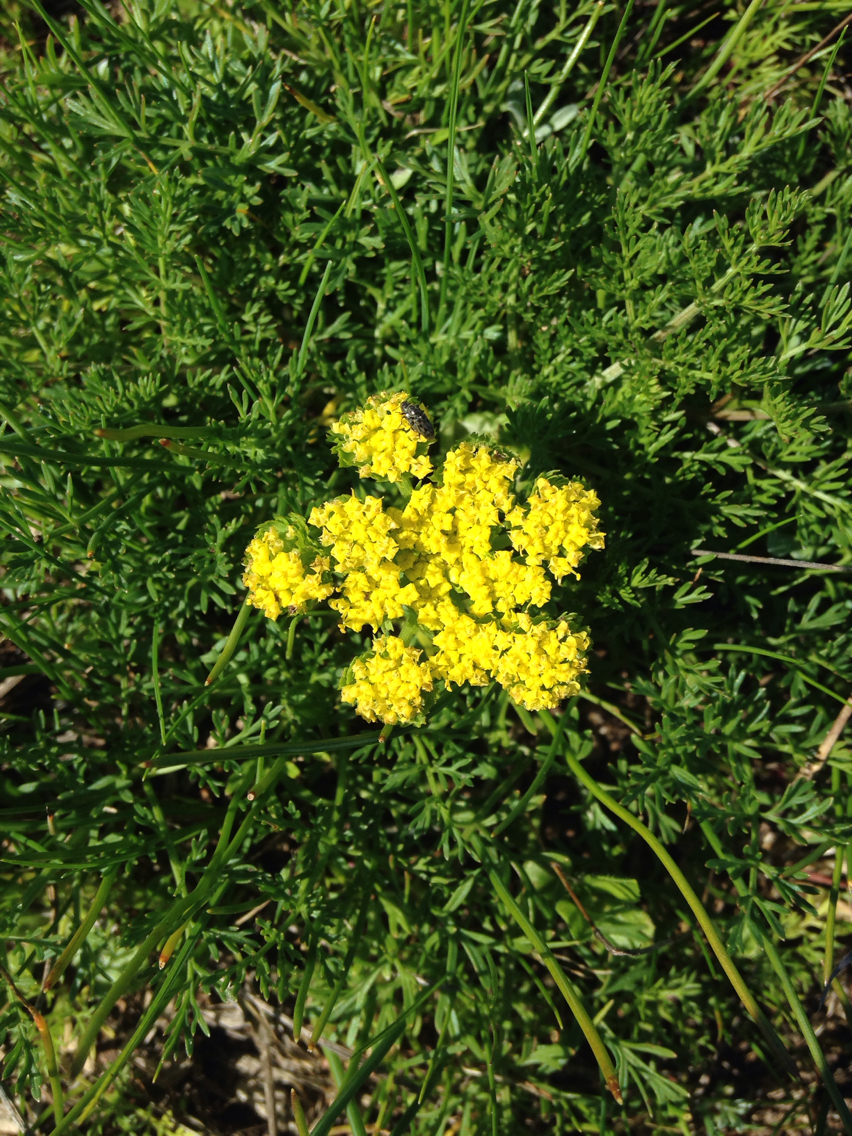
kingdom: Plantae
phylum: Tracheophyta
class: Magnoliopsida
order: Apiales
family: Apiaceae
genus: Lomatium
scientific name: Lomatium utriculatum
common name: Fine-leaf desert-parsley
